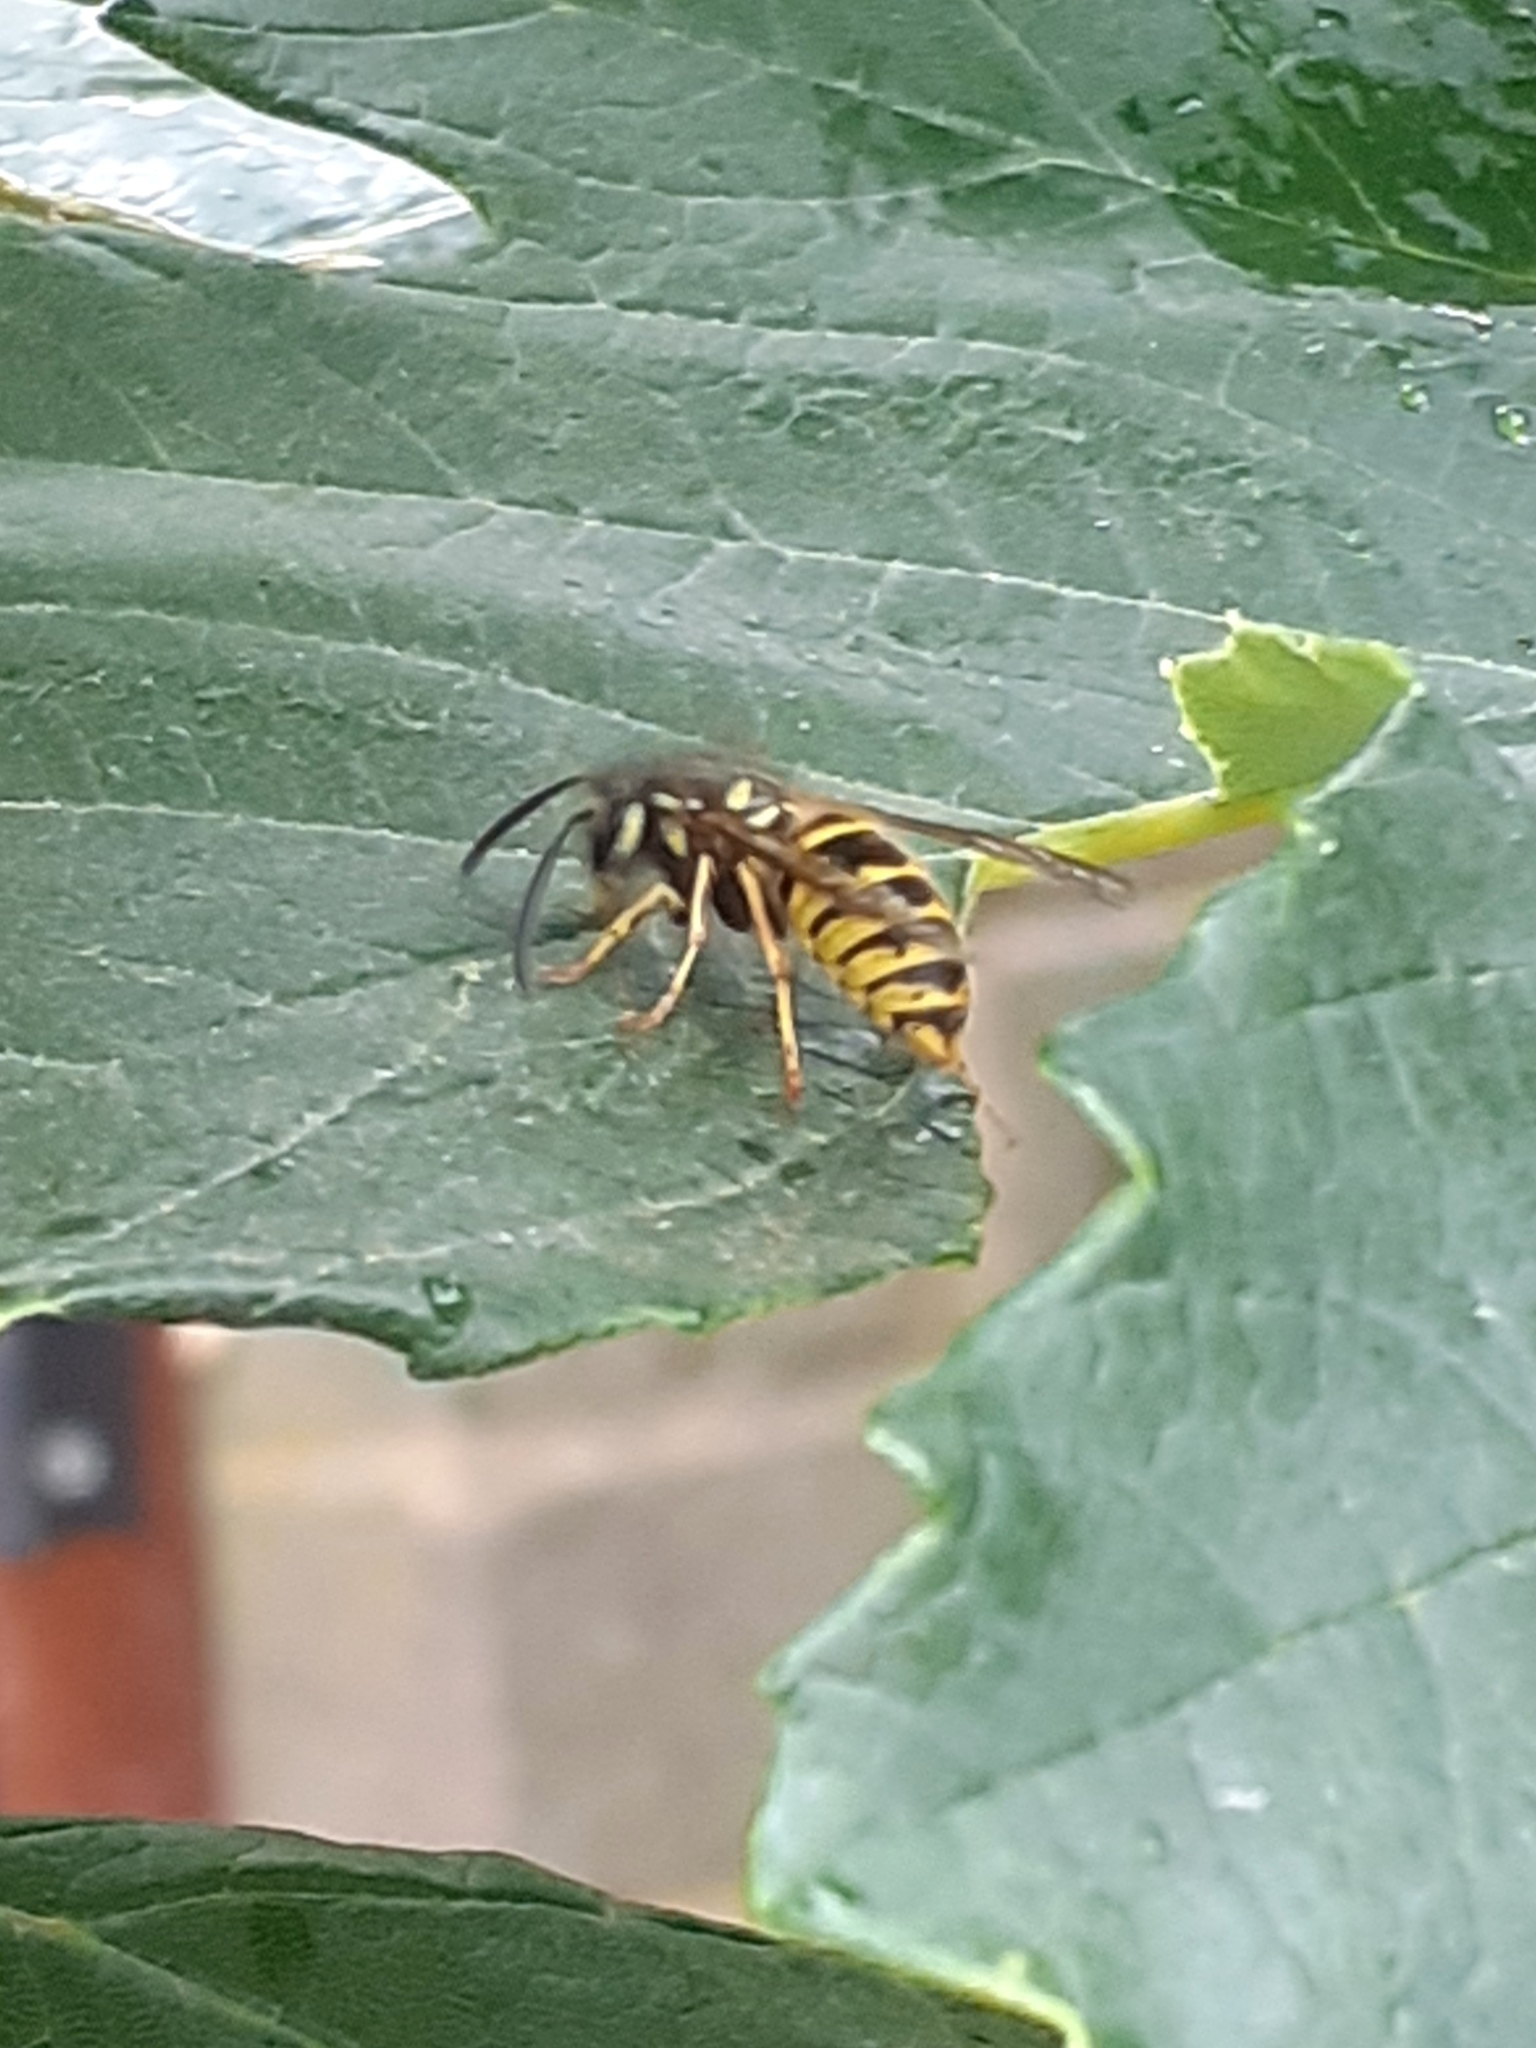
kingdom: Animalia
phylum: Arthropoda
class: Insecta
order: Hymenoptera
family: Vespidae
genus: Vespula
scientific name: Vespula vulgaris
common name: Common wasp
